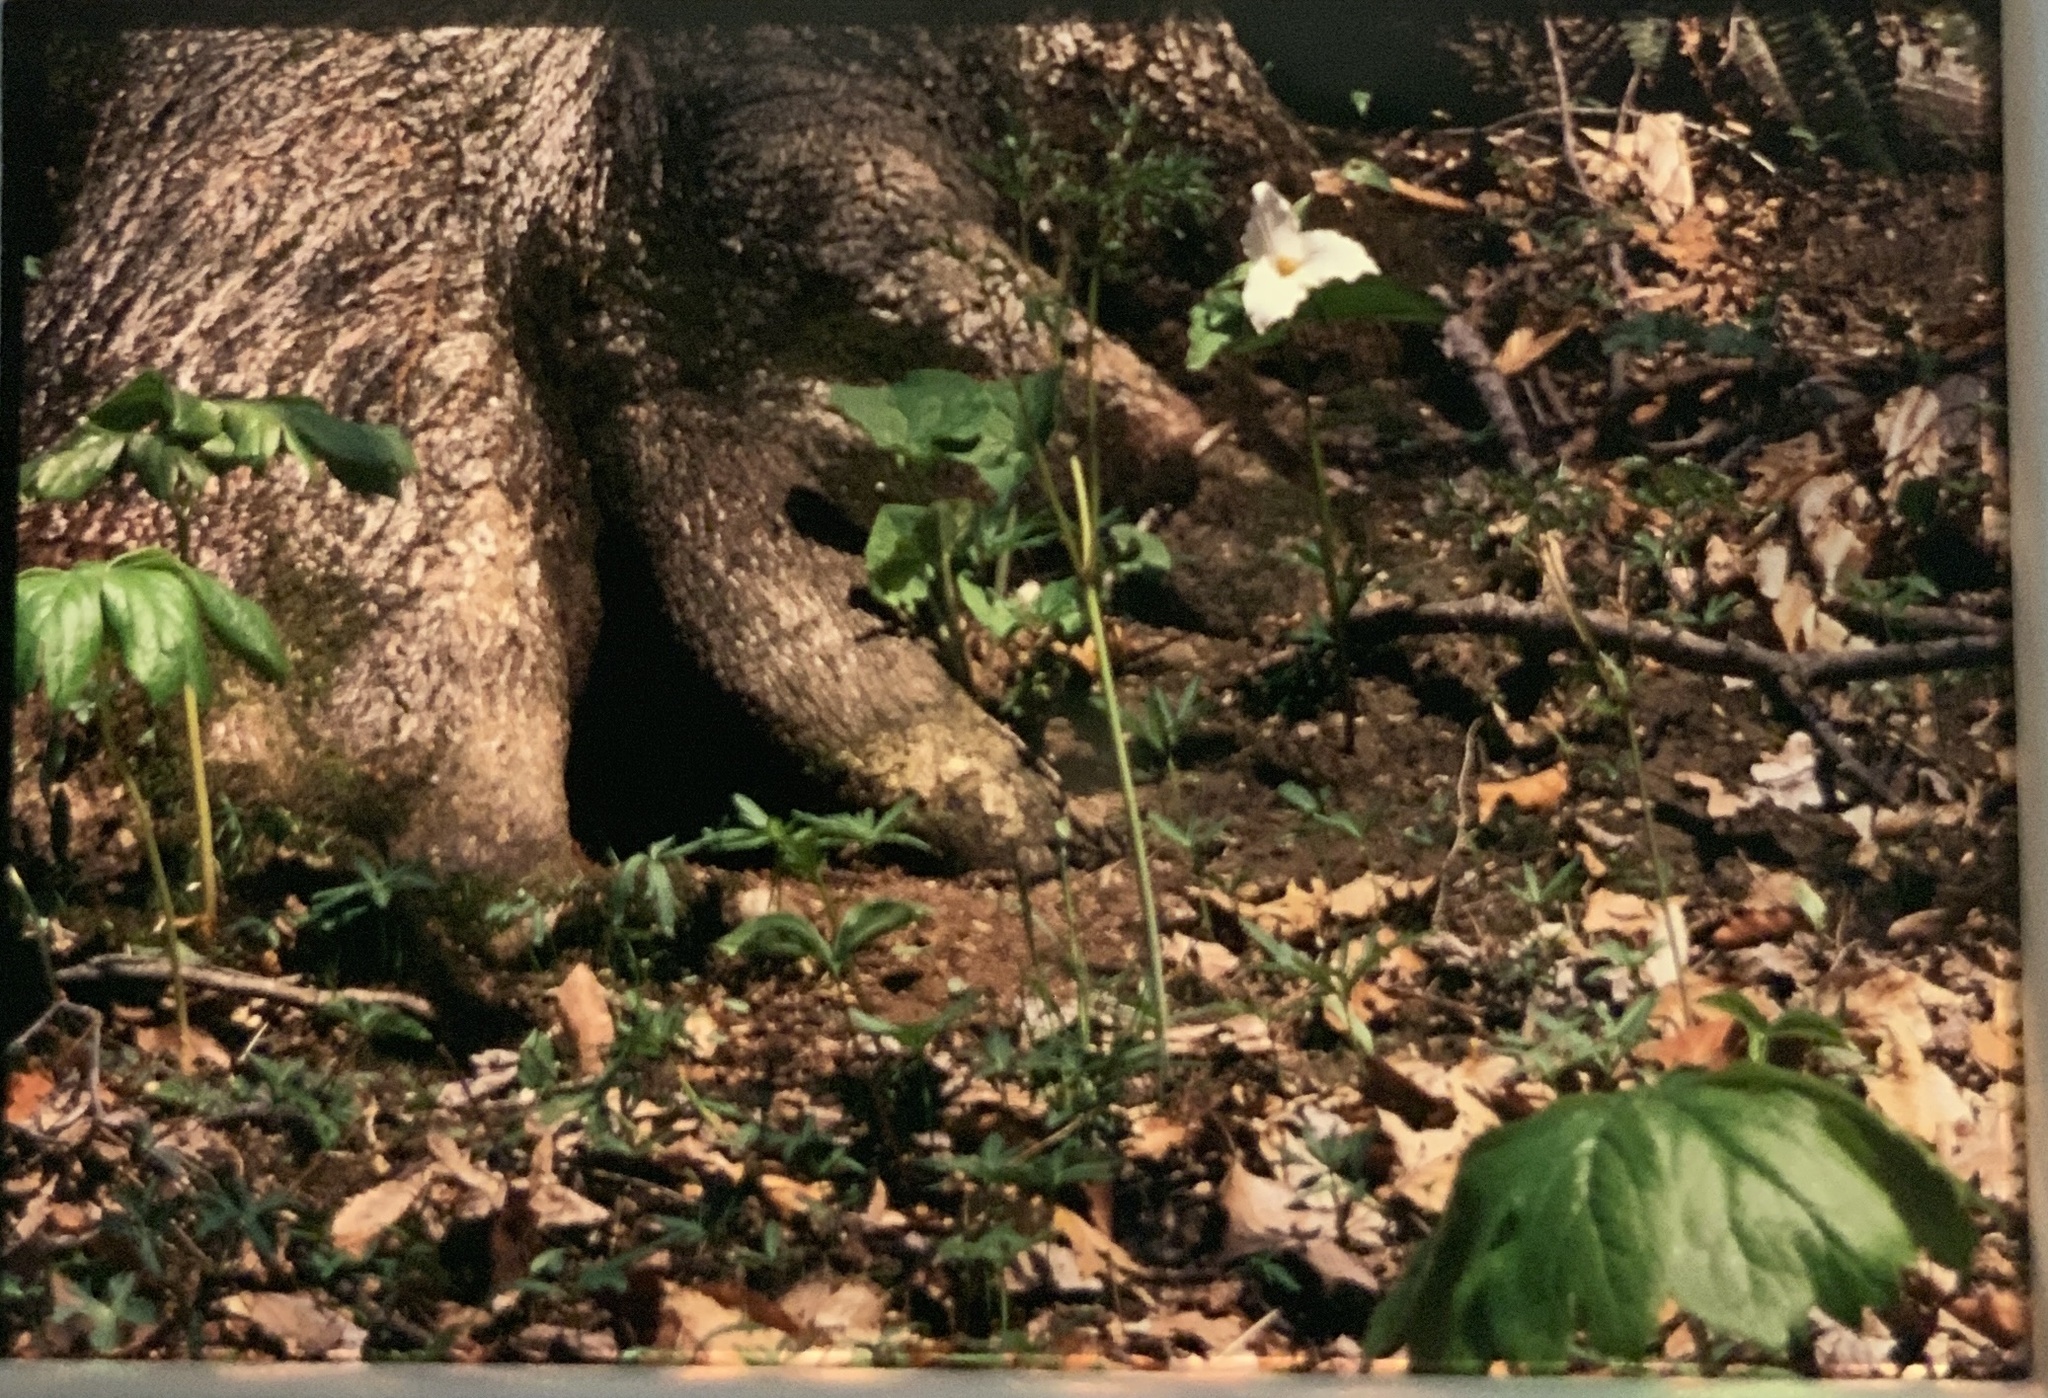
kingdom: Plantae
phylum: Tracheophyta
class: Liliopsida
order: Liliales
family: Melanthiaceae
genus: Trillium
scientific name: Trillium grandiflorum
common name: Great white trillium
